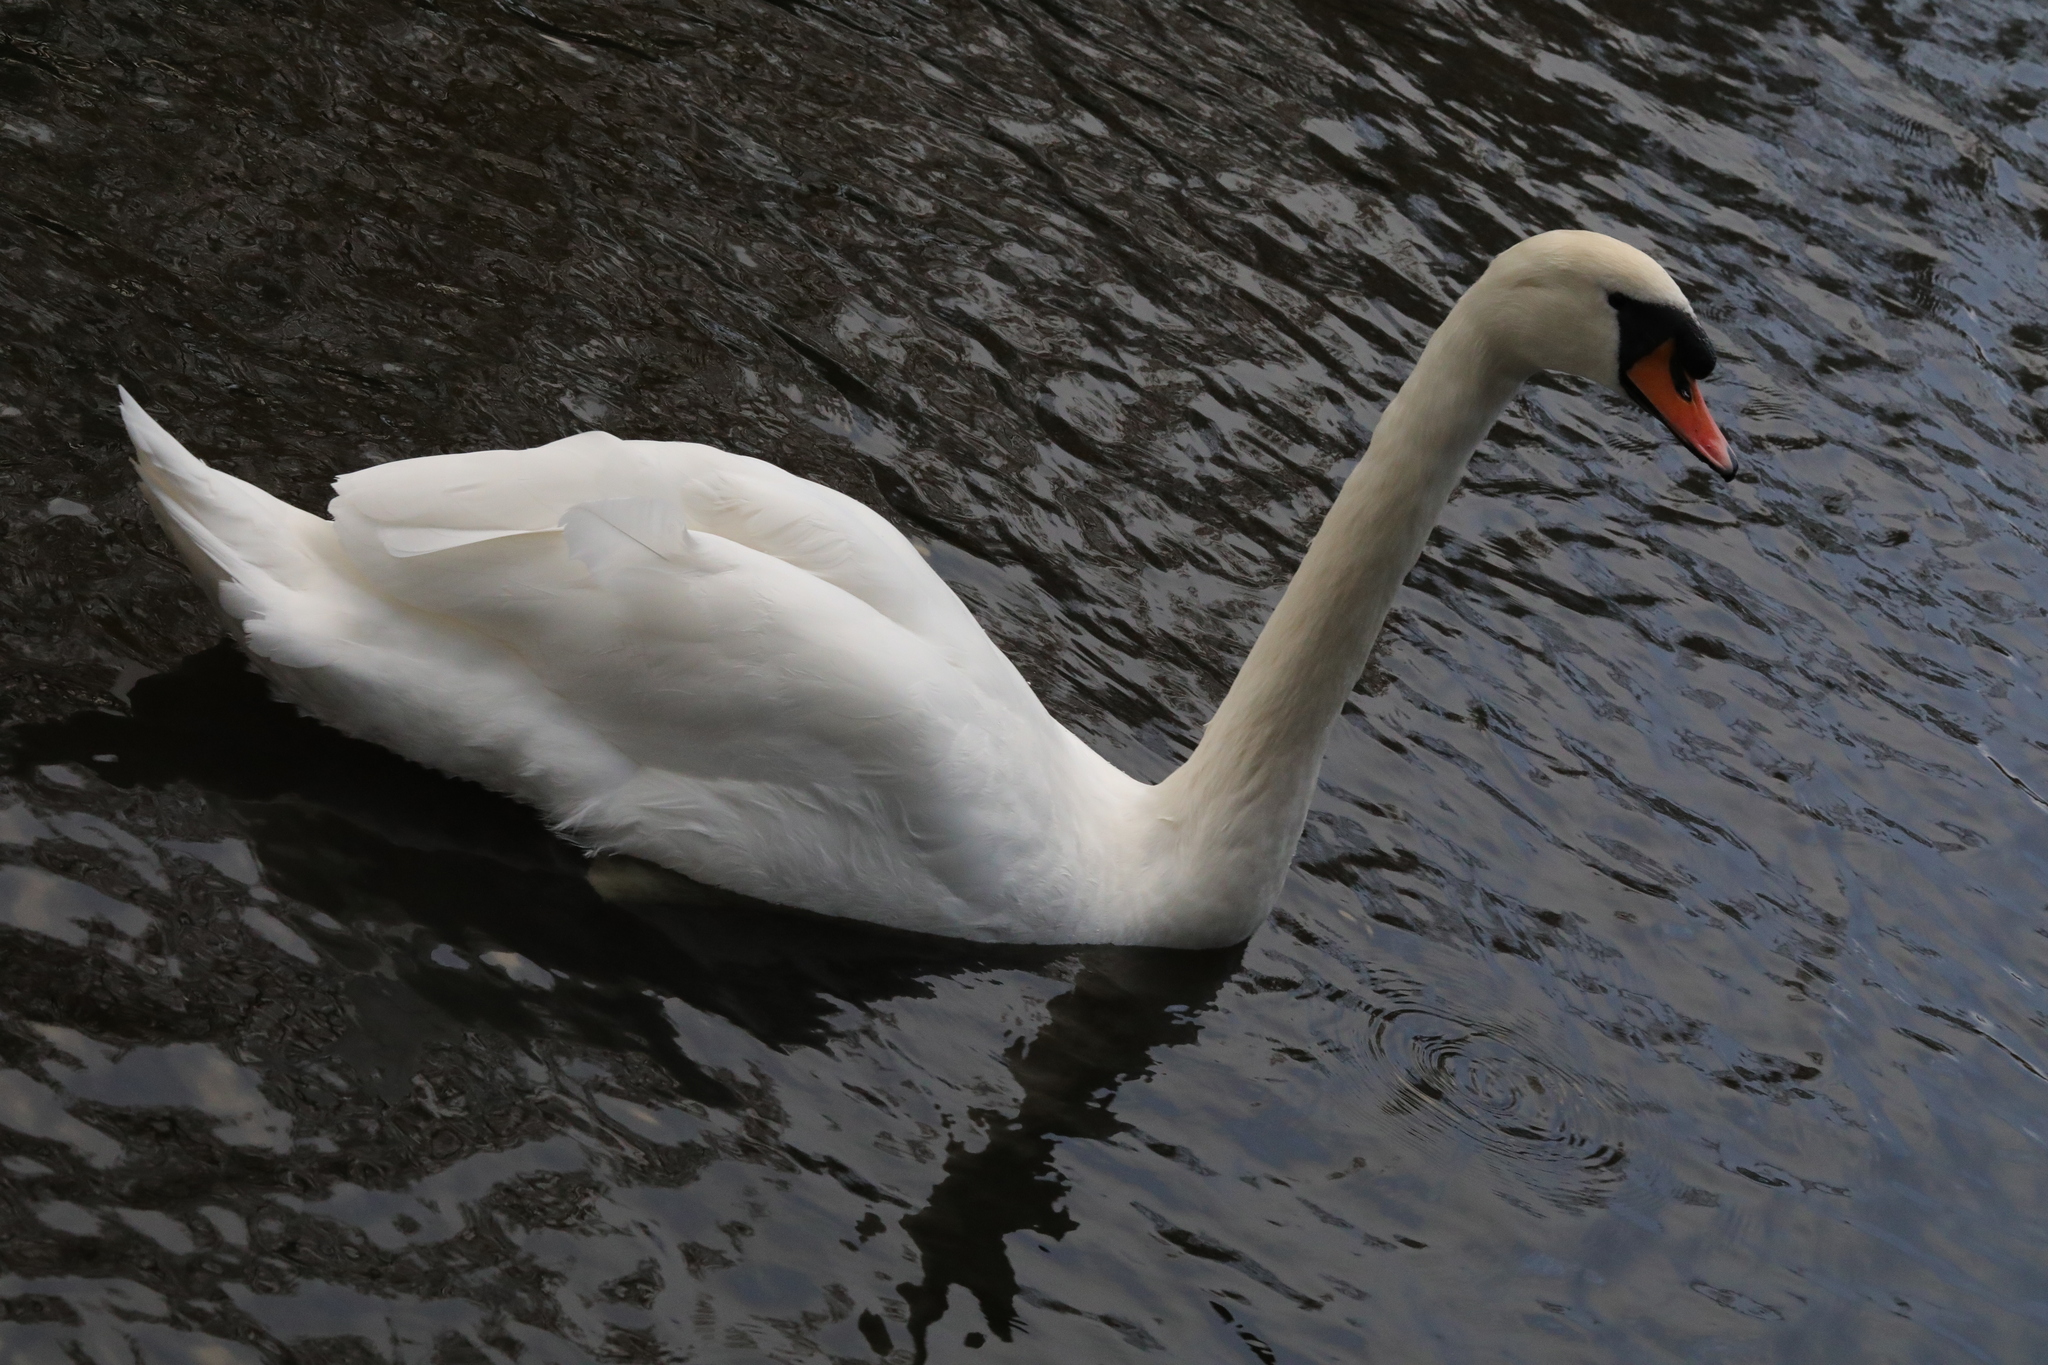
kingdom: Animalia
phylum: Chordata
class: Aves
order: Anseriformes
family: Anatidae
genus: Cygnus
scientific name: Cygnus olor
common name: Mute swan
